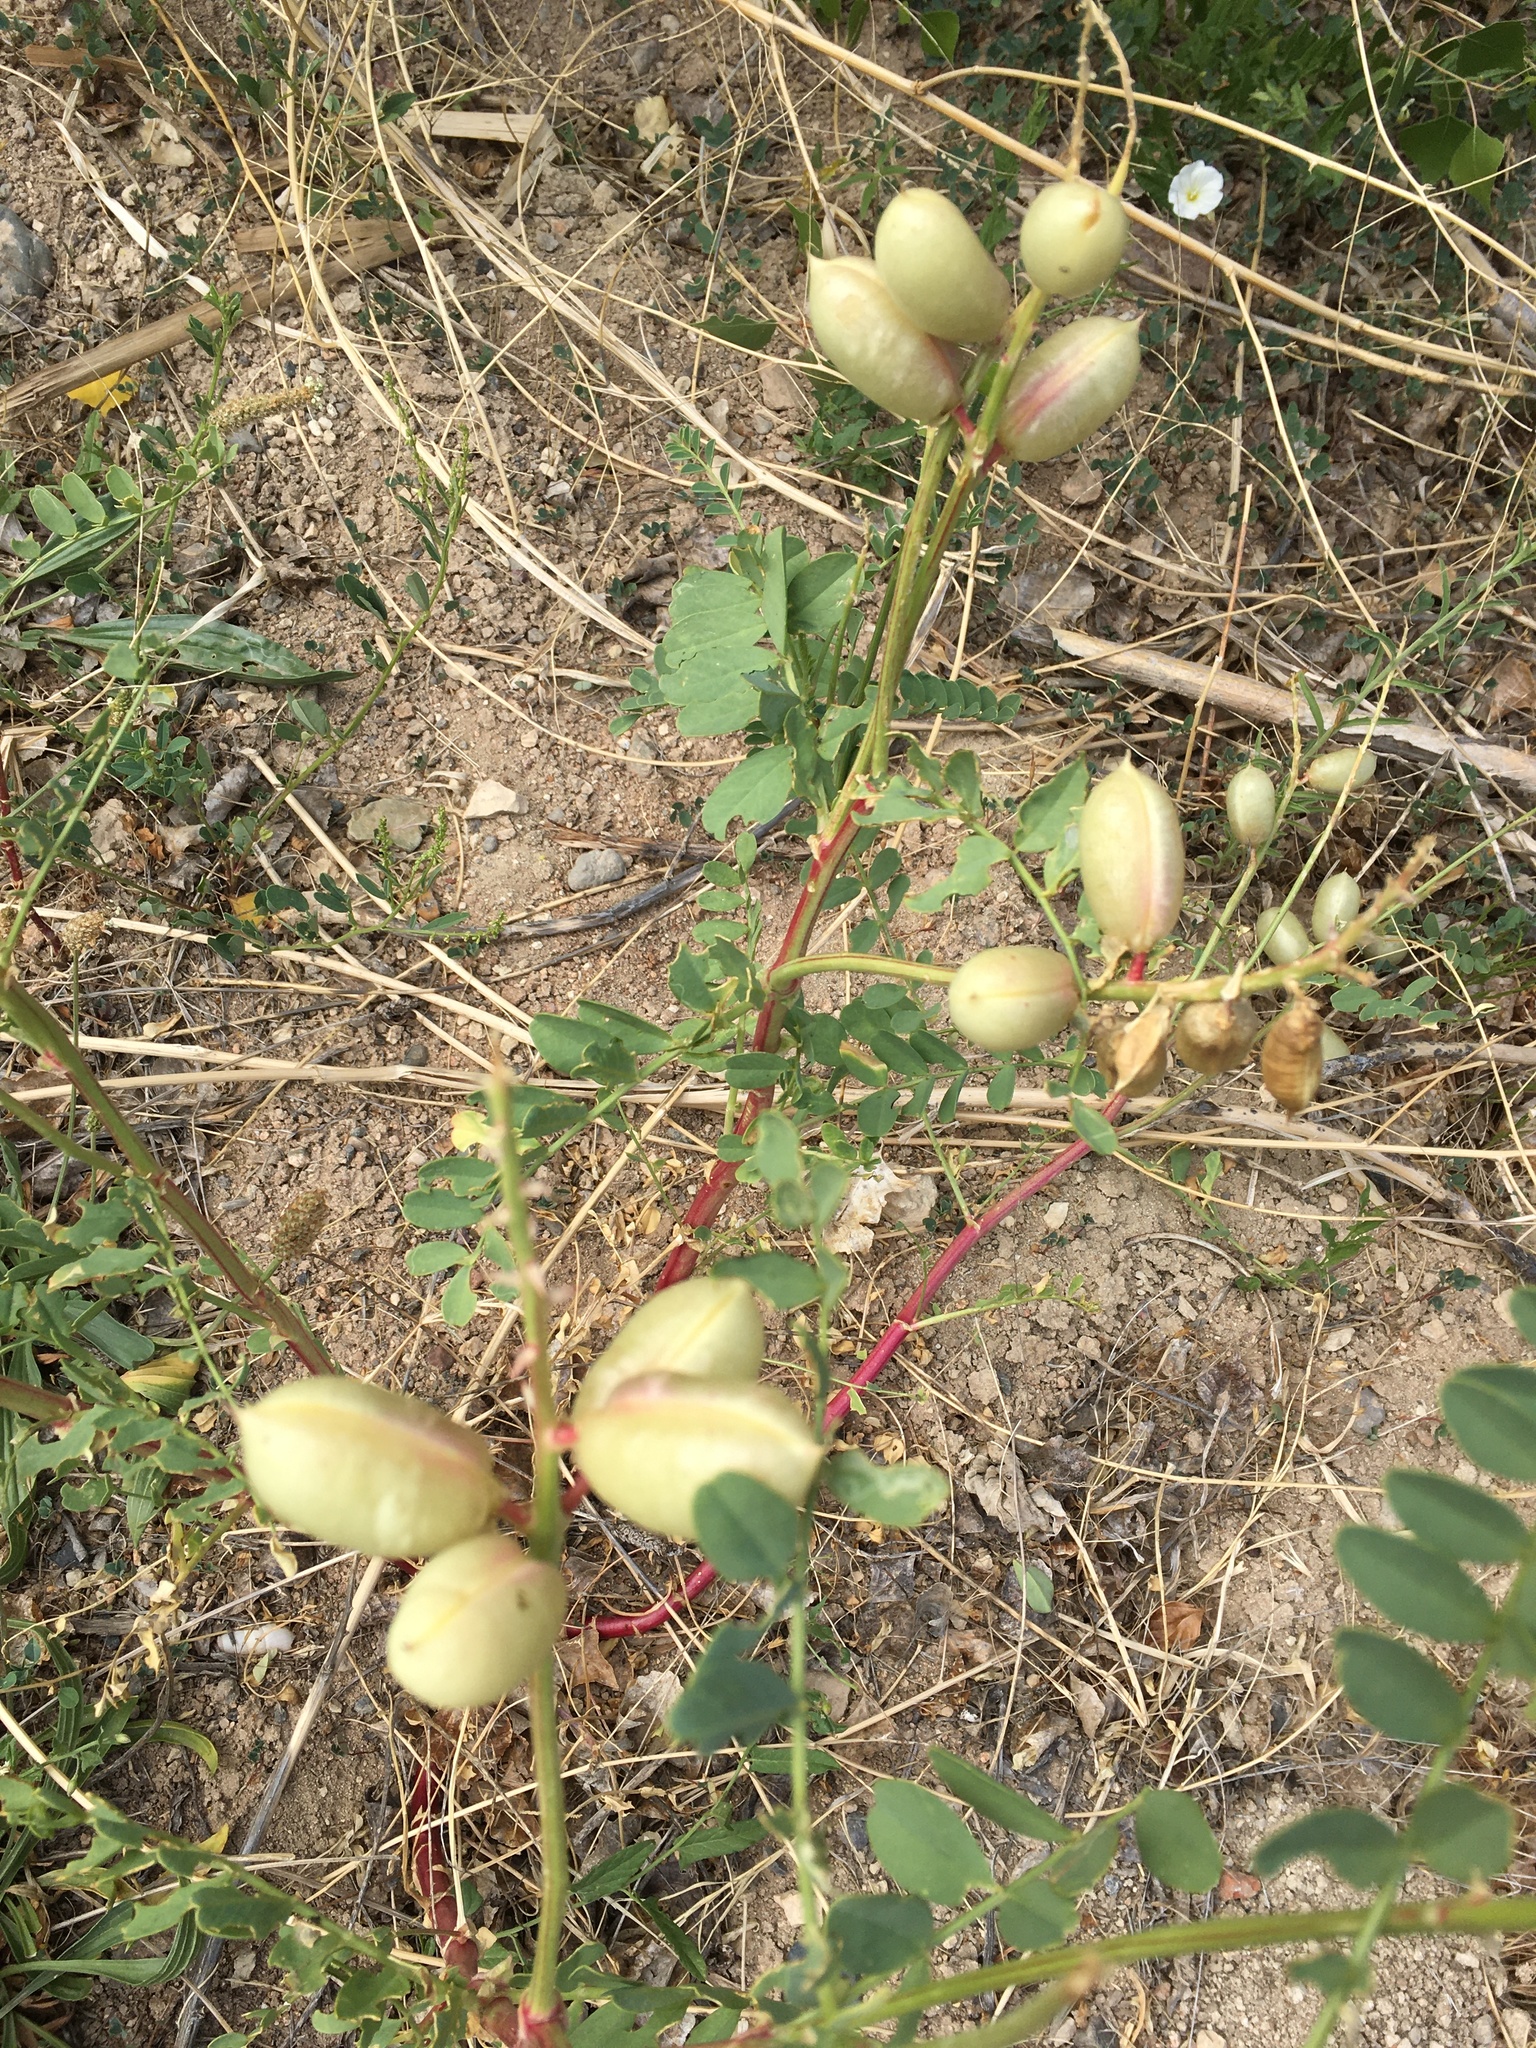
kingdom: Plantae
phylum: Tracheophyta
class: Magnoliopsida
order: Fabales
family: Fabaceae
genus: Astragalus
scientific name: Astragalus praelongus
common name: Stinking milk-vetch
